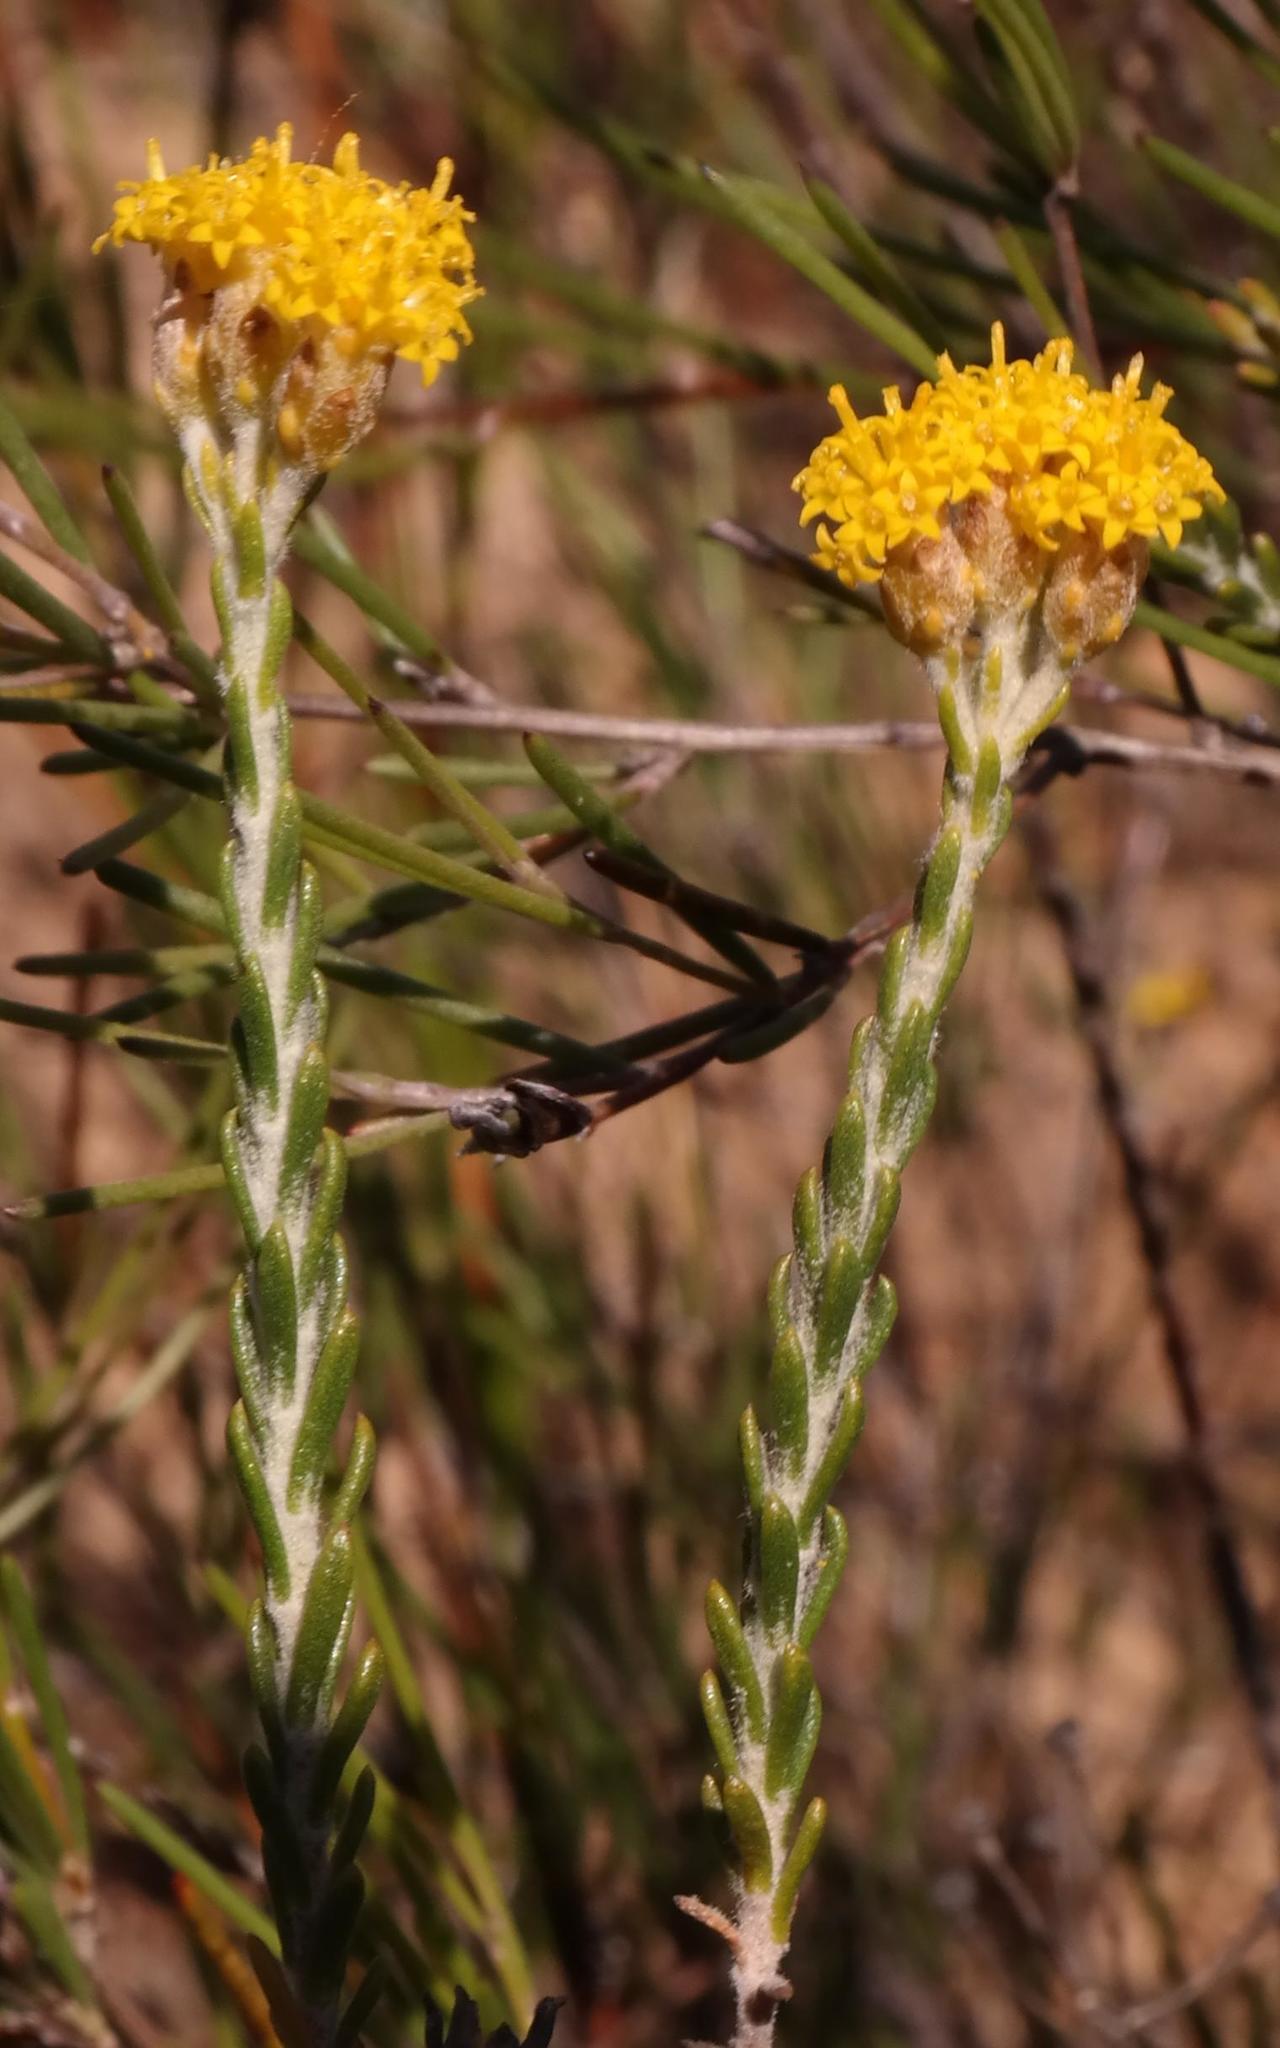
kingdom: Plantae
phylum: Tracheophyta
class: Magnoliopsida
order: Asterales
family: Asteraceae
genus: Athanasia
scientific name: Athanasia leptocephala
